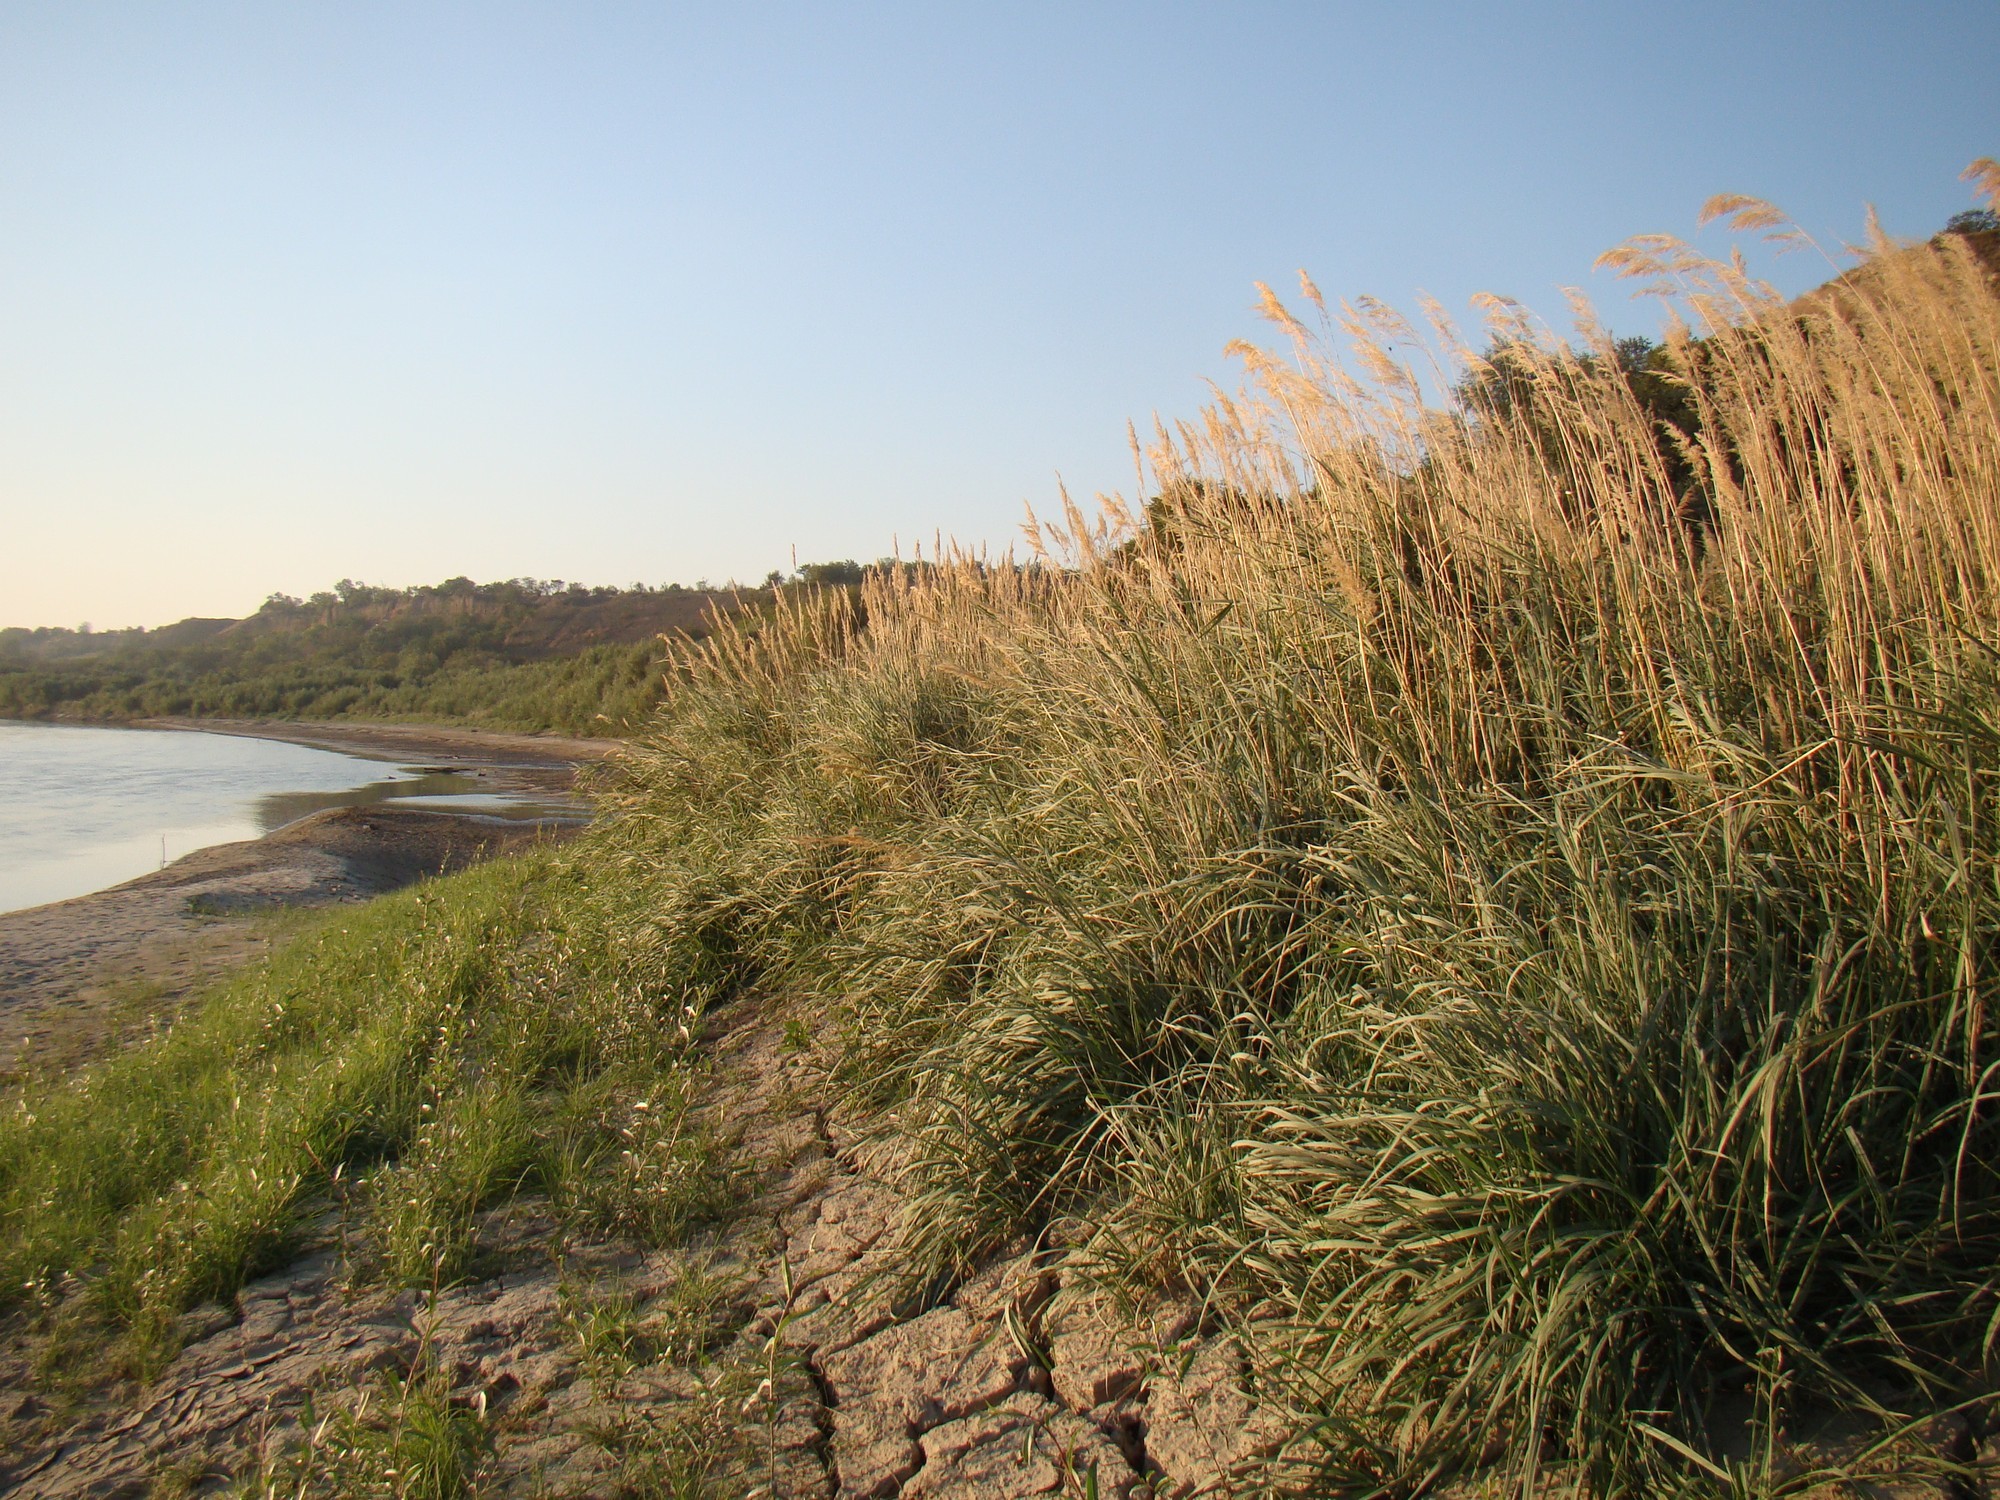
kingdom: Plantae
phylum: Tracheophyta
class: Liliopsida
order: Poales
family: Poaceae
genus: Calamagrostis
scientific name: Calamagrostis pseudophragmites
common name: Coastal small-reed
